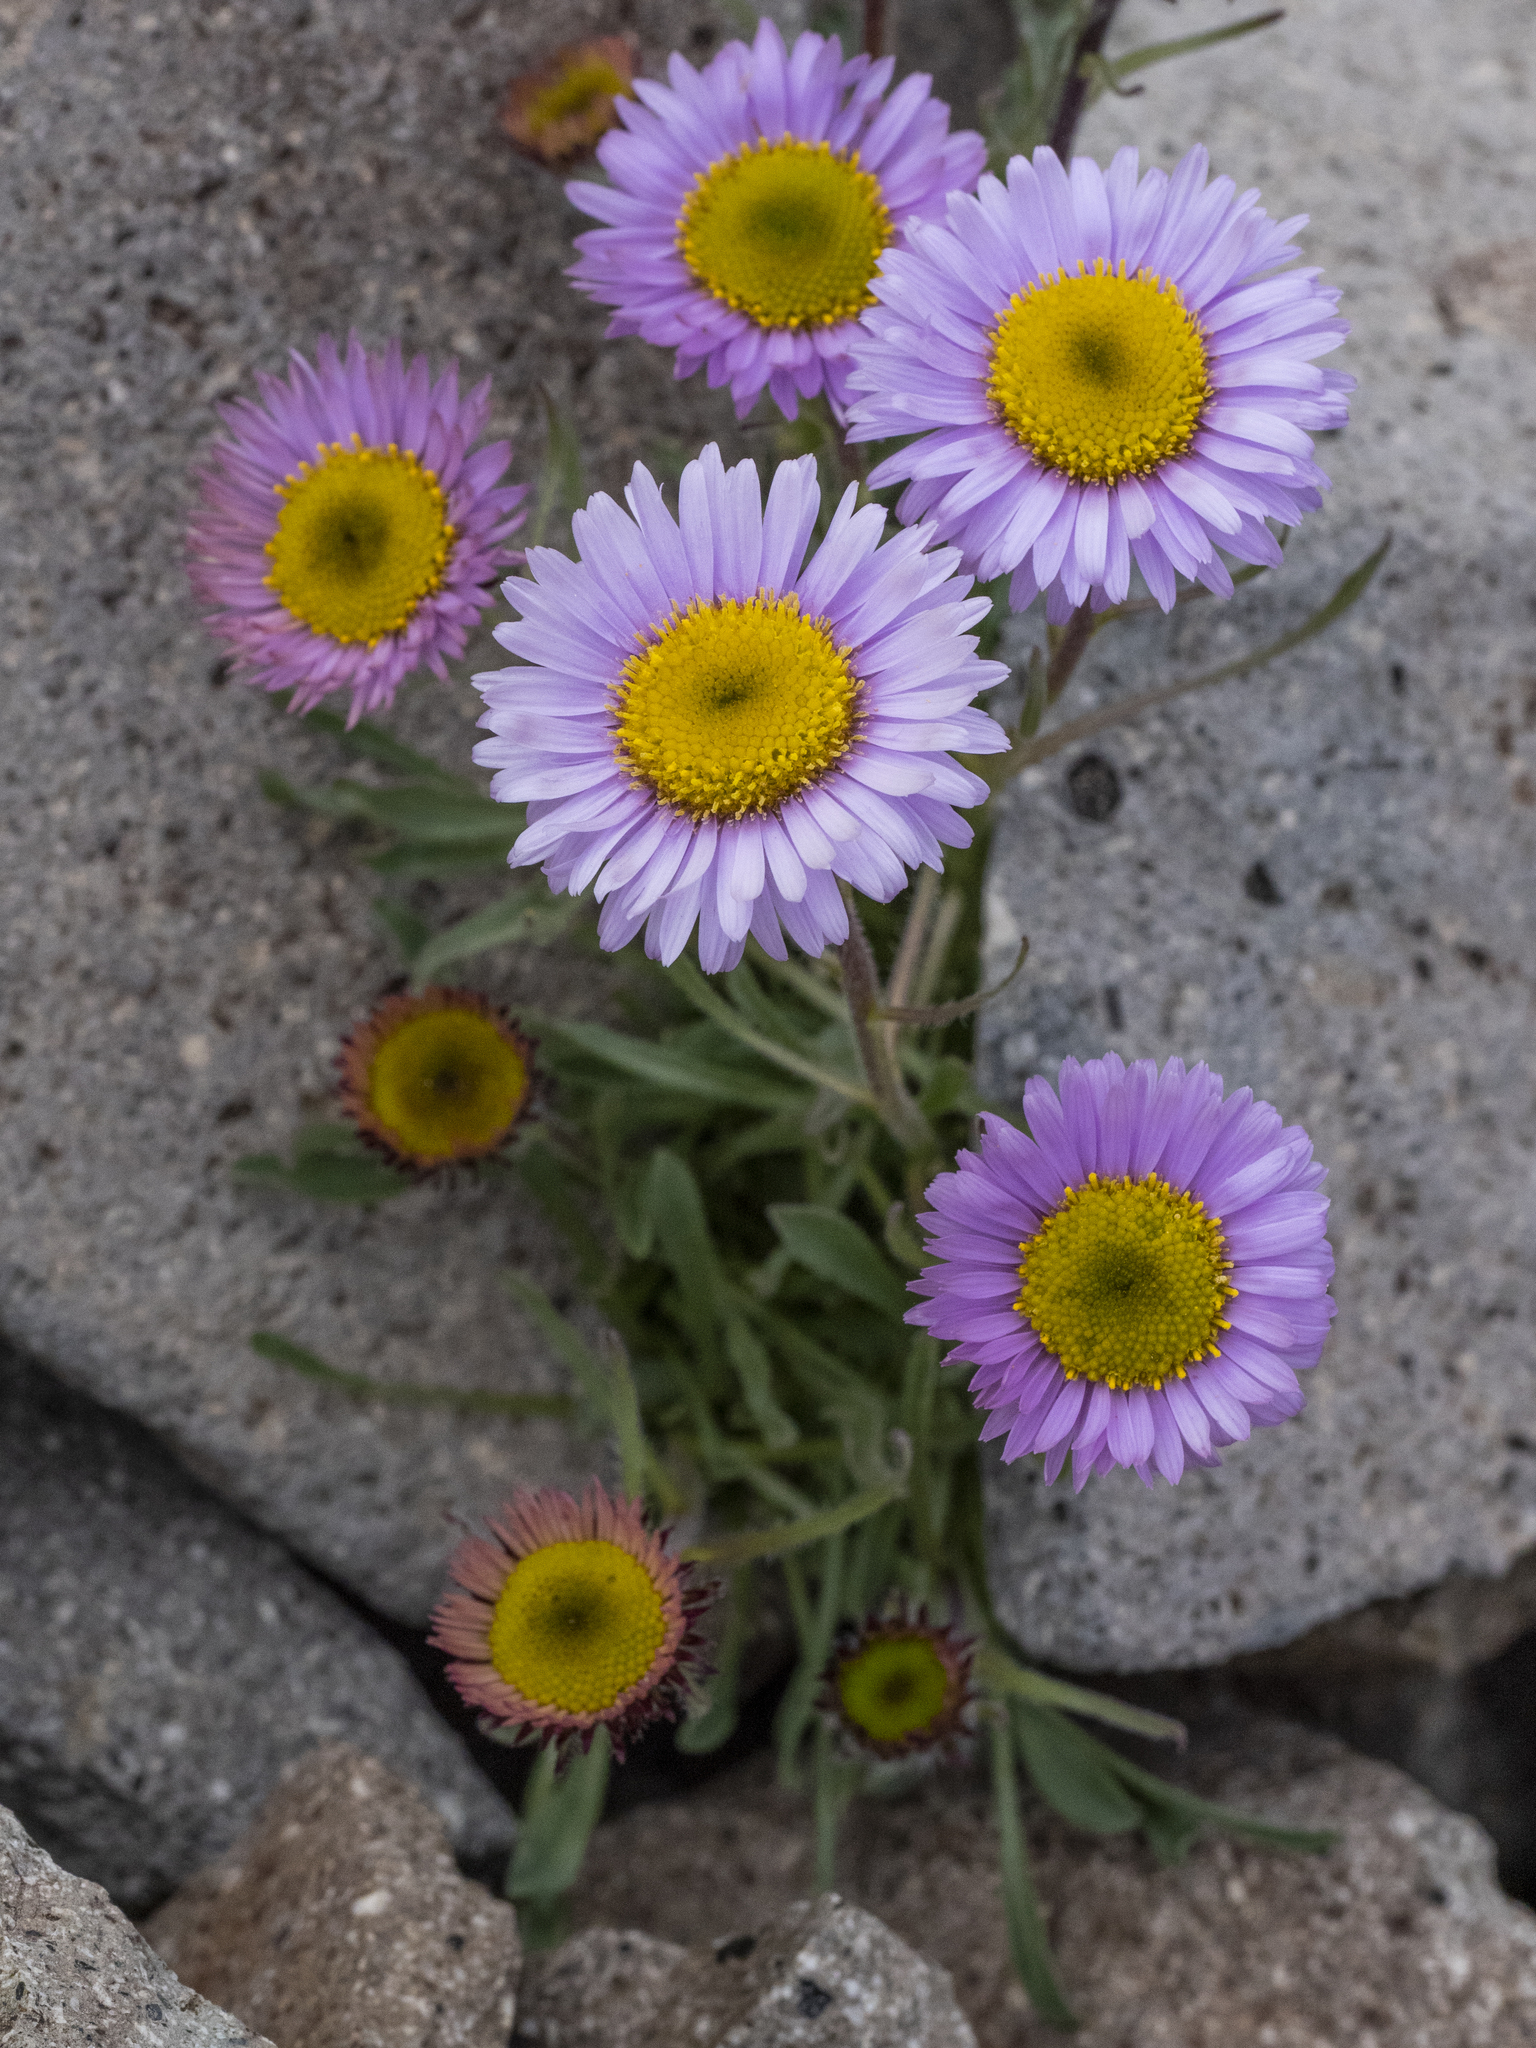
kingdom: Plantae
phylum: Tracheophyta
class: Magnoliopsida
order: Asterales
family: Asteraceae
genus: Erigeron
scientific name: Erigeron glacialis
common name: Subalpine fleabane
